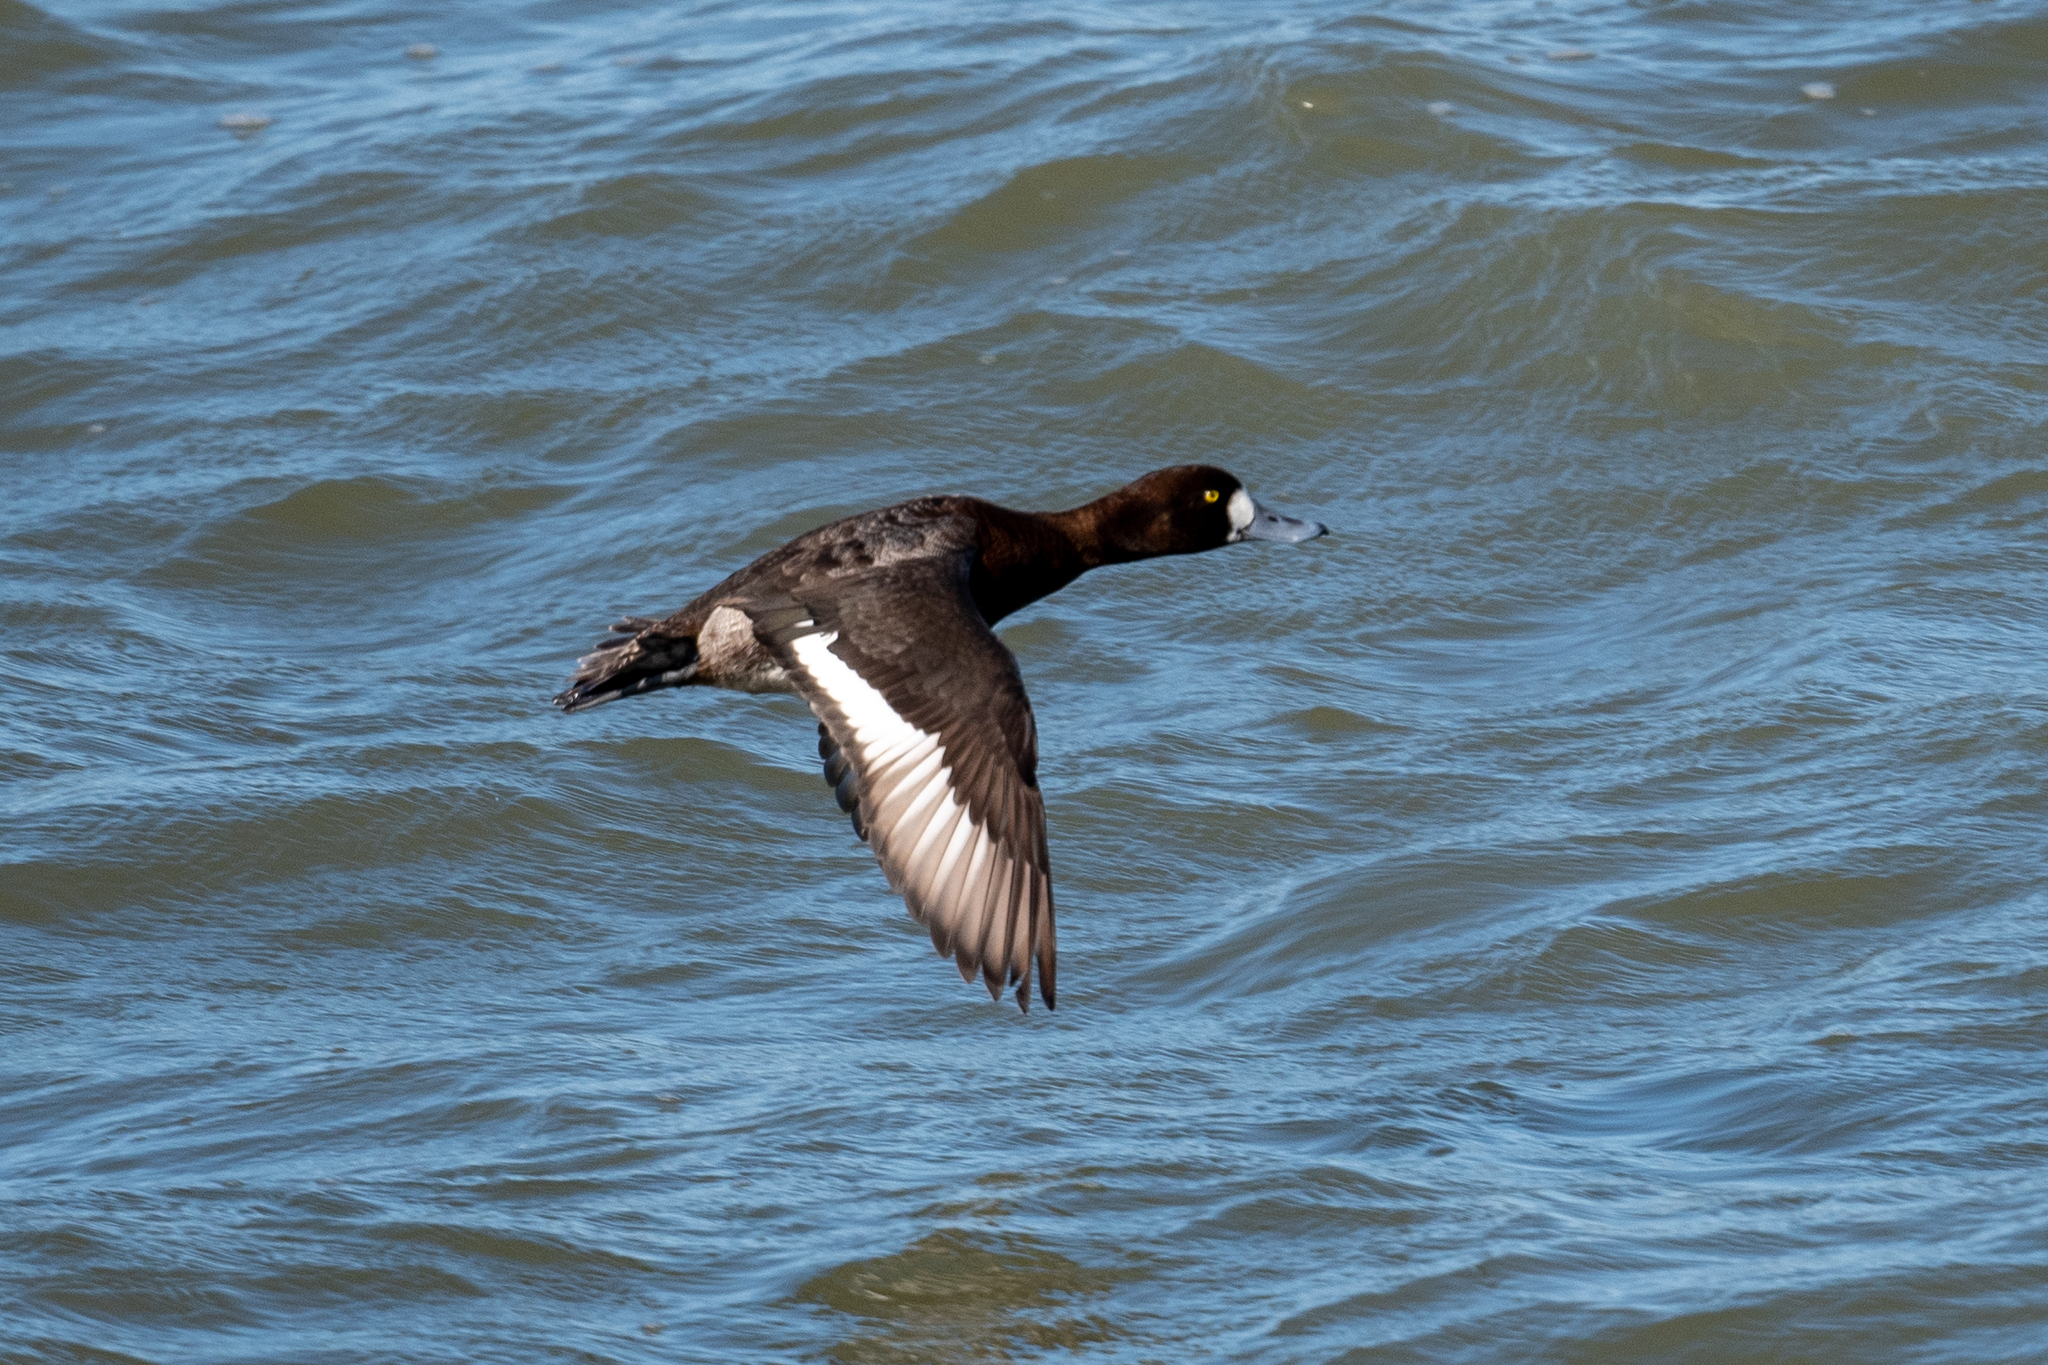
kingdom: Animalia
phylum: Chordata
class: Aves
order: Anseriformes
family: Anatidae
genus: Aythya
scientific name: Aythya marila
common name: Greater scaup
